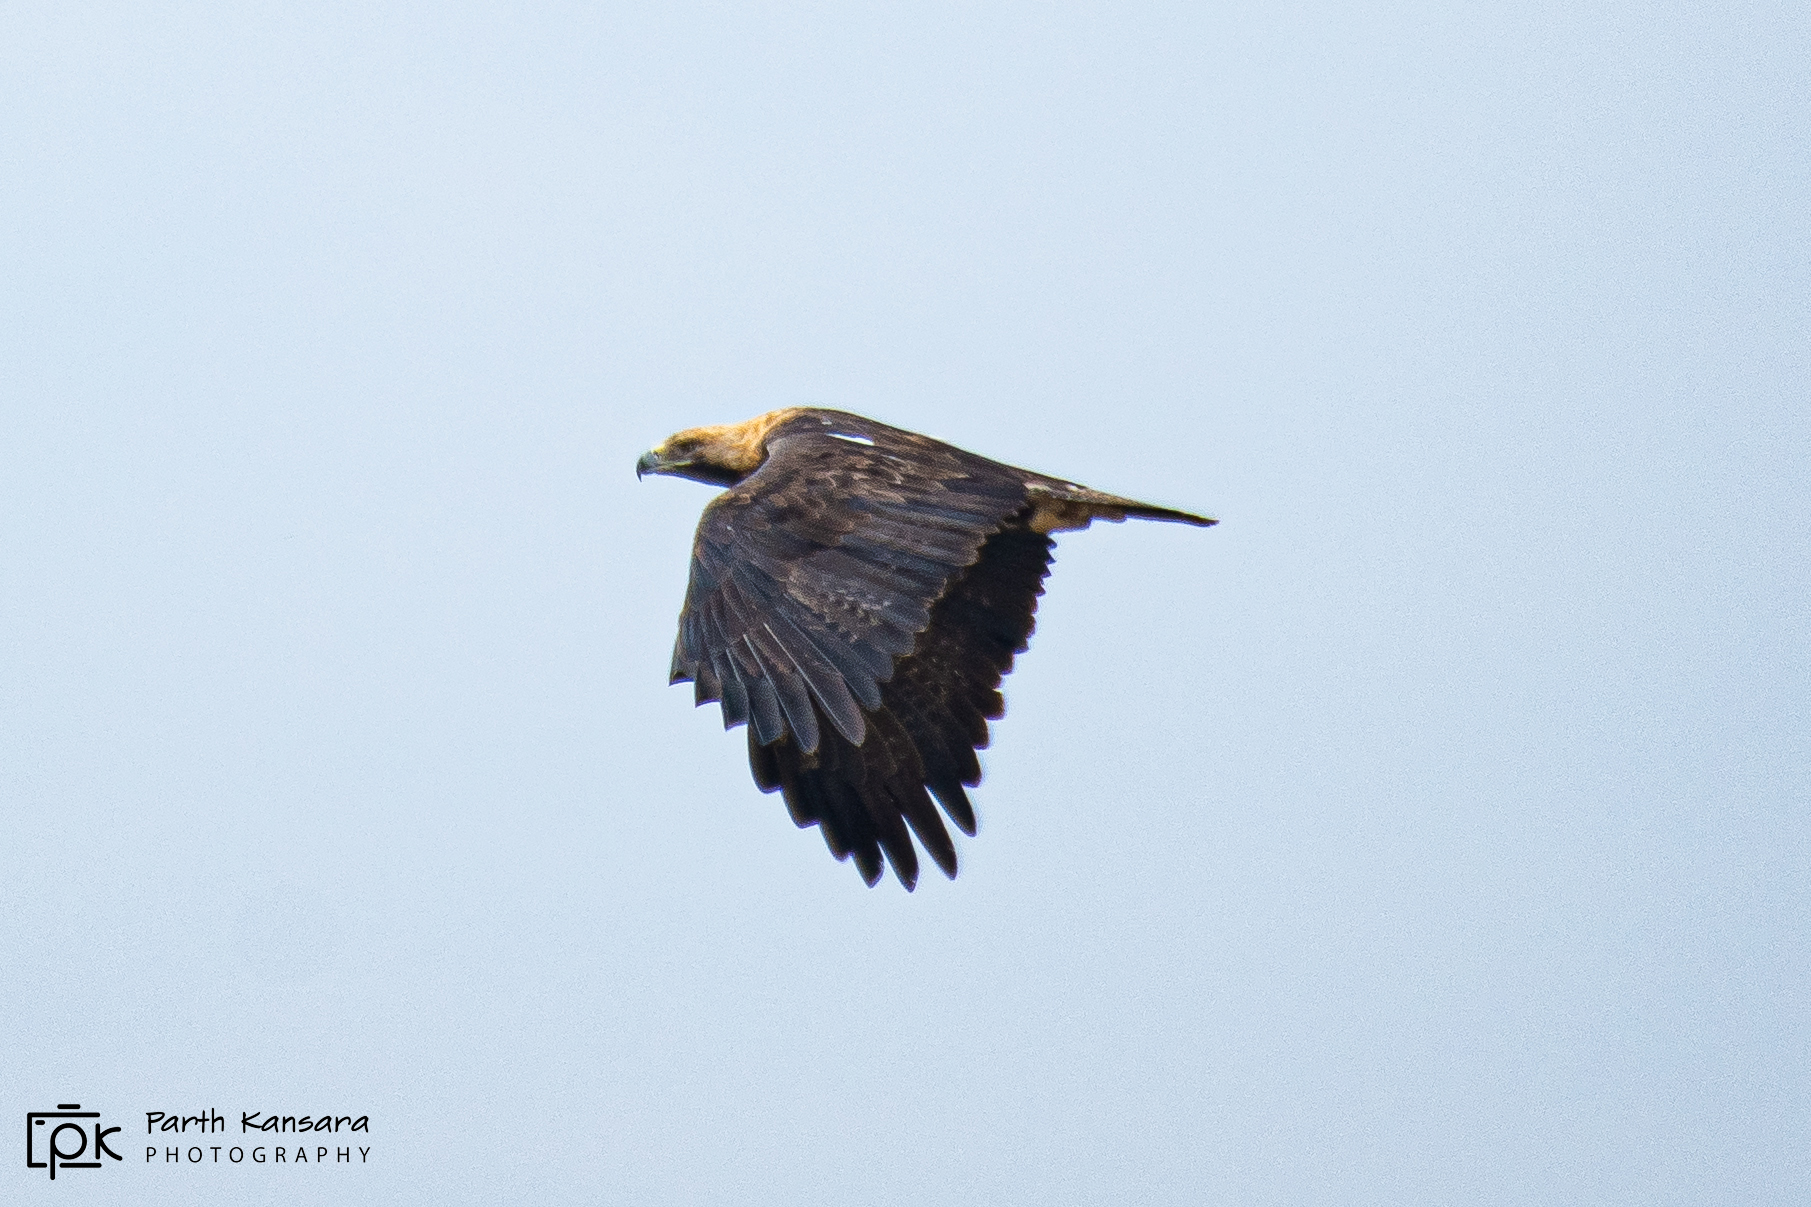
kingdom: Animalia
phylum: Chordata
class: Aves
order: Accipitriformes
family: Accipitridae
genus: Aquila
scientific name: Aquila heliaca
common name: Eastern imperial eagle
